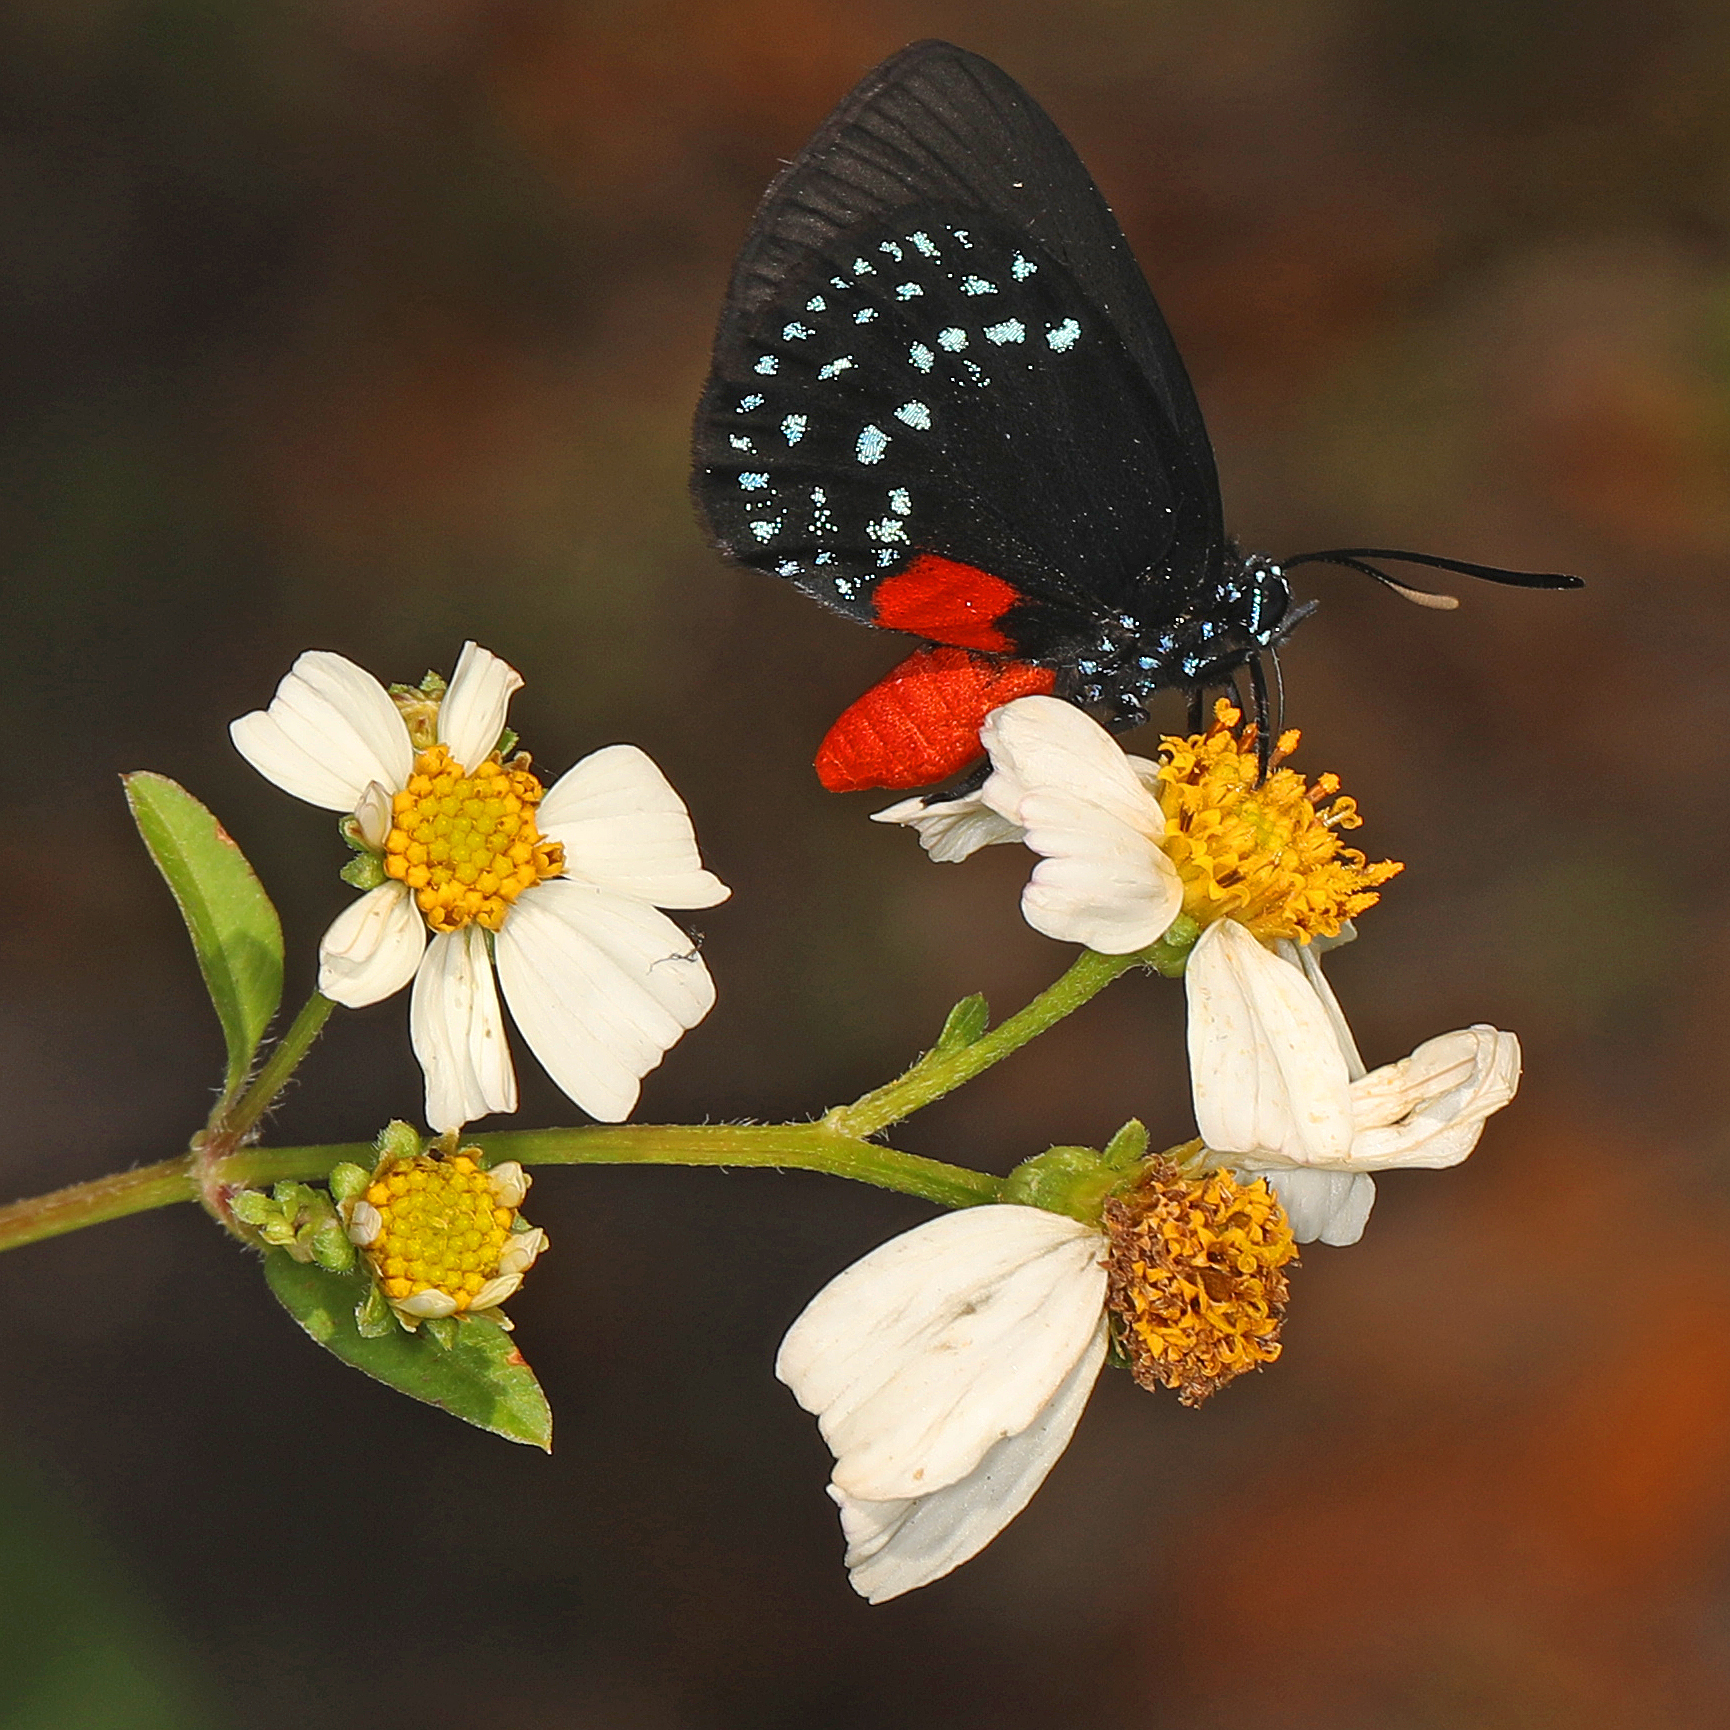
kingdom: Animalia
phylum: Arthropoda
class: Insecta
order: Lepidoptera
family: Lycaenidae
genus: Eumaeus
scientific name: Eumaeus atala
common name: Atala
